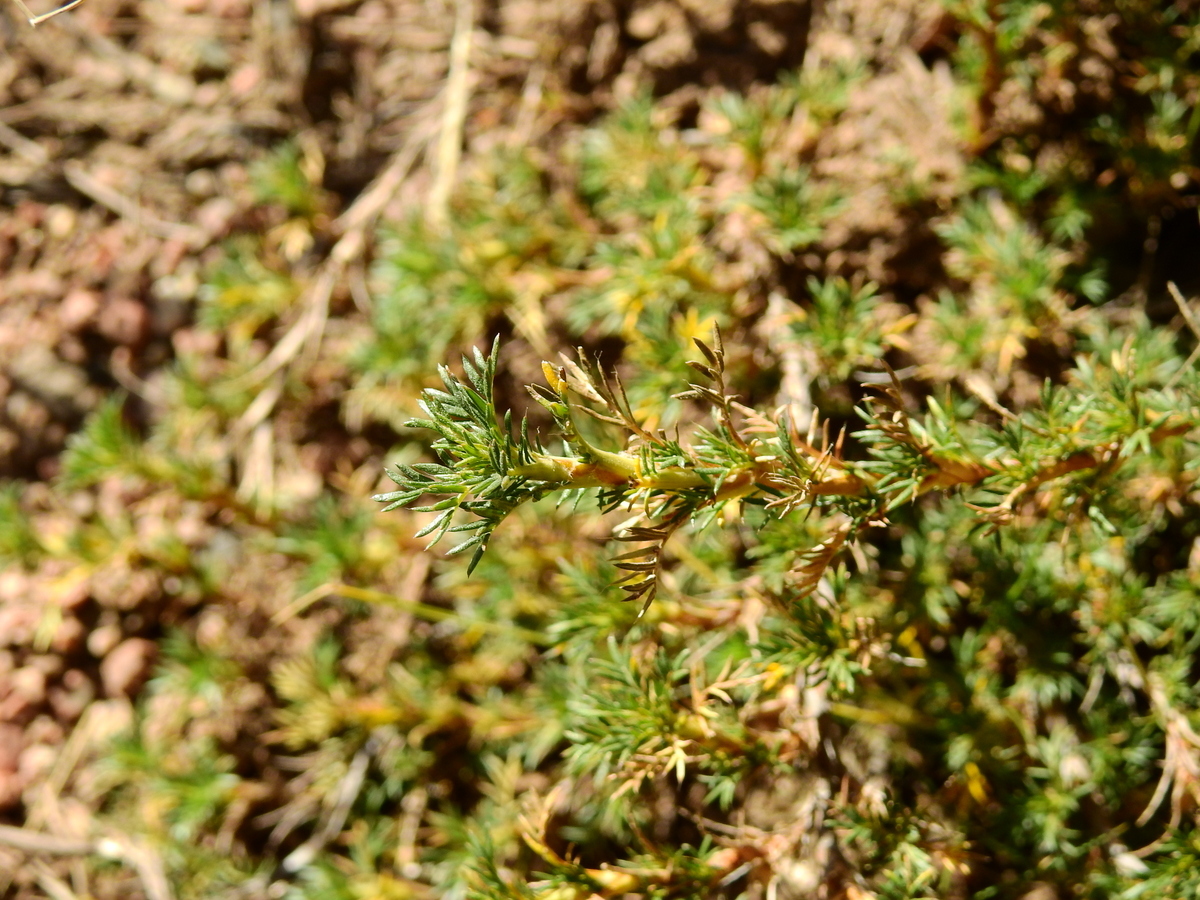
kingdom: Plantae
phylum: Tracheophyta
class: Magnoliopsida
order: Rosales
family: Rosaceae
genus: Margyricarpus
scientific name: Margyricarpus pinnatus
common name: Pearlfruit
